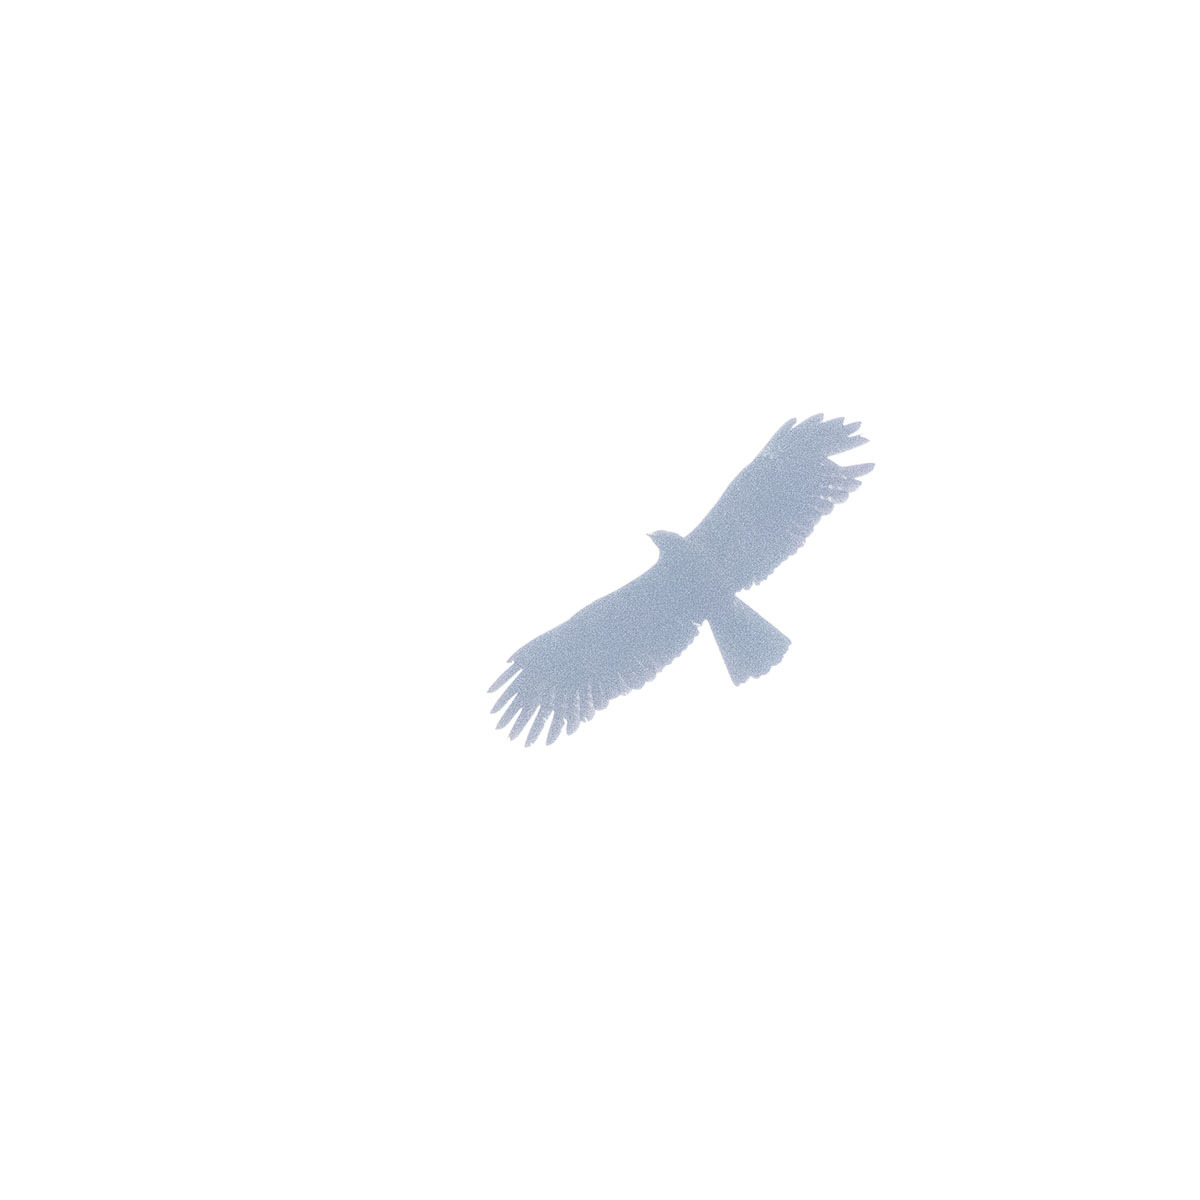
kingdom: Animalia
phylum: Chordata
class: Aves
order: Accipitriformes
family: Accipitridae
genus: Ictinaetus
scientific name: Ictinaetus malayensis
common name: Black eagle
